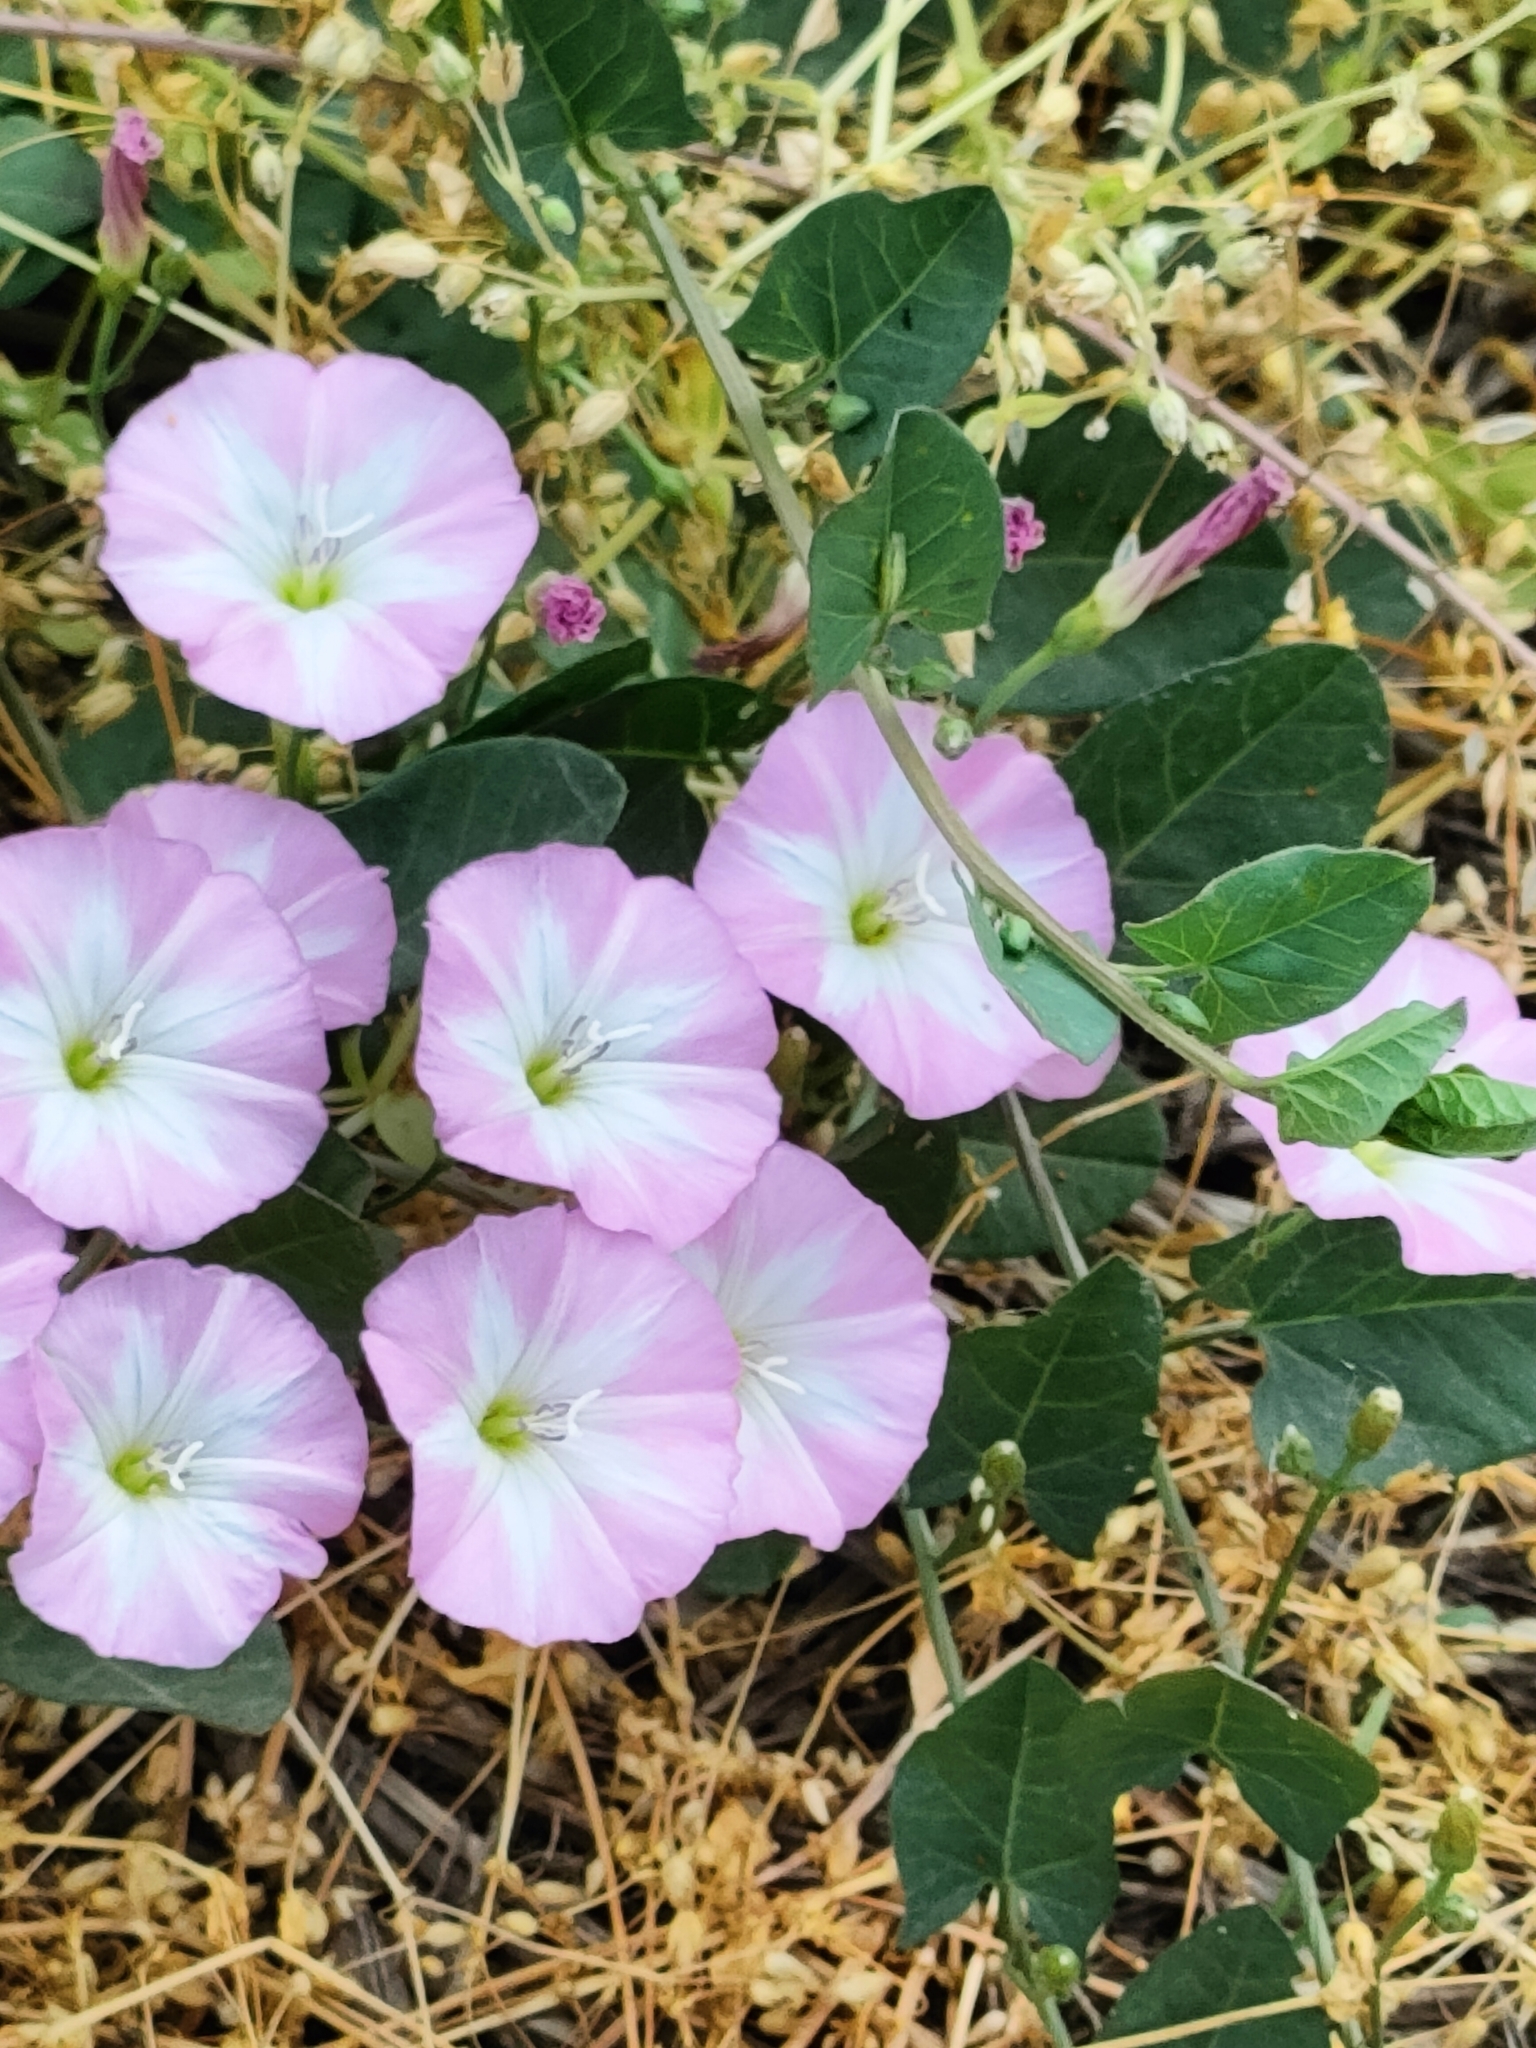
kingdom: Plantae
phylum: Tracheophyta
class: Magnoliopsida
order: Solanales
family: Convolvulaceae
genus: Convolvulus
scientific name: Convolvulus arvensis
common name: Field bindweed
